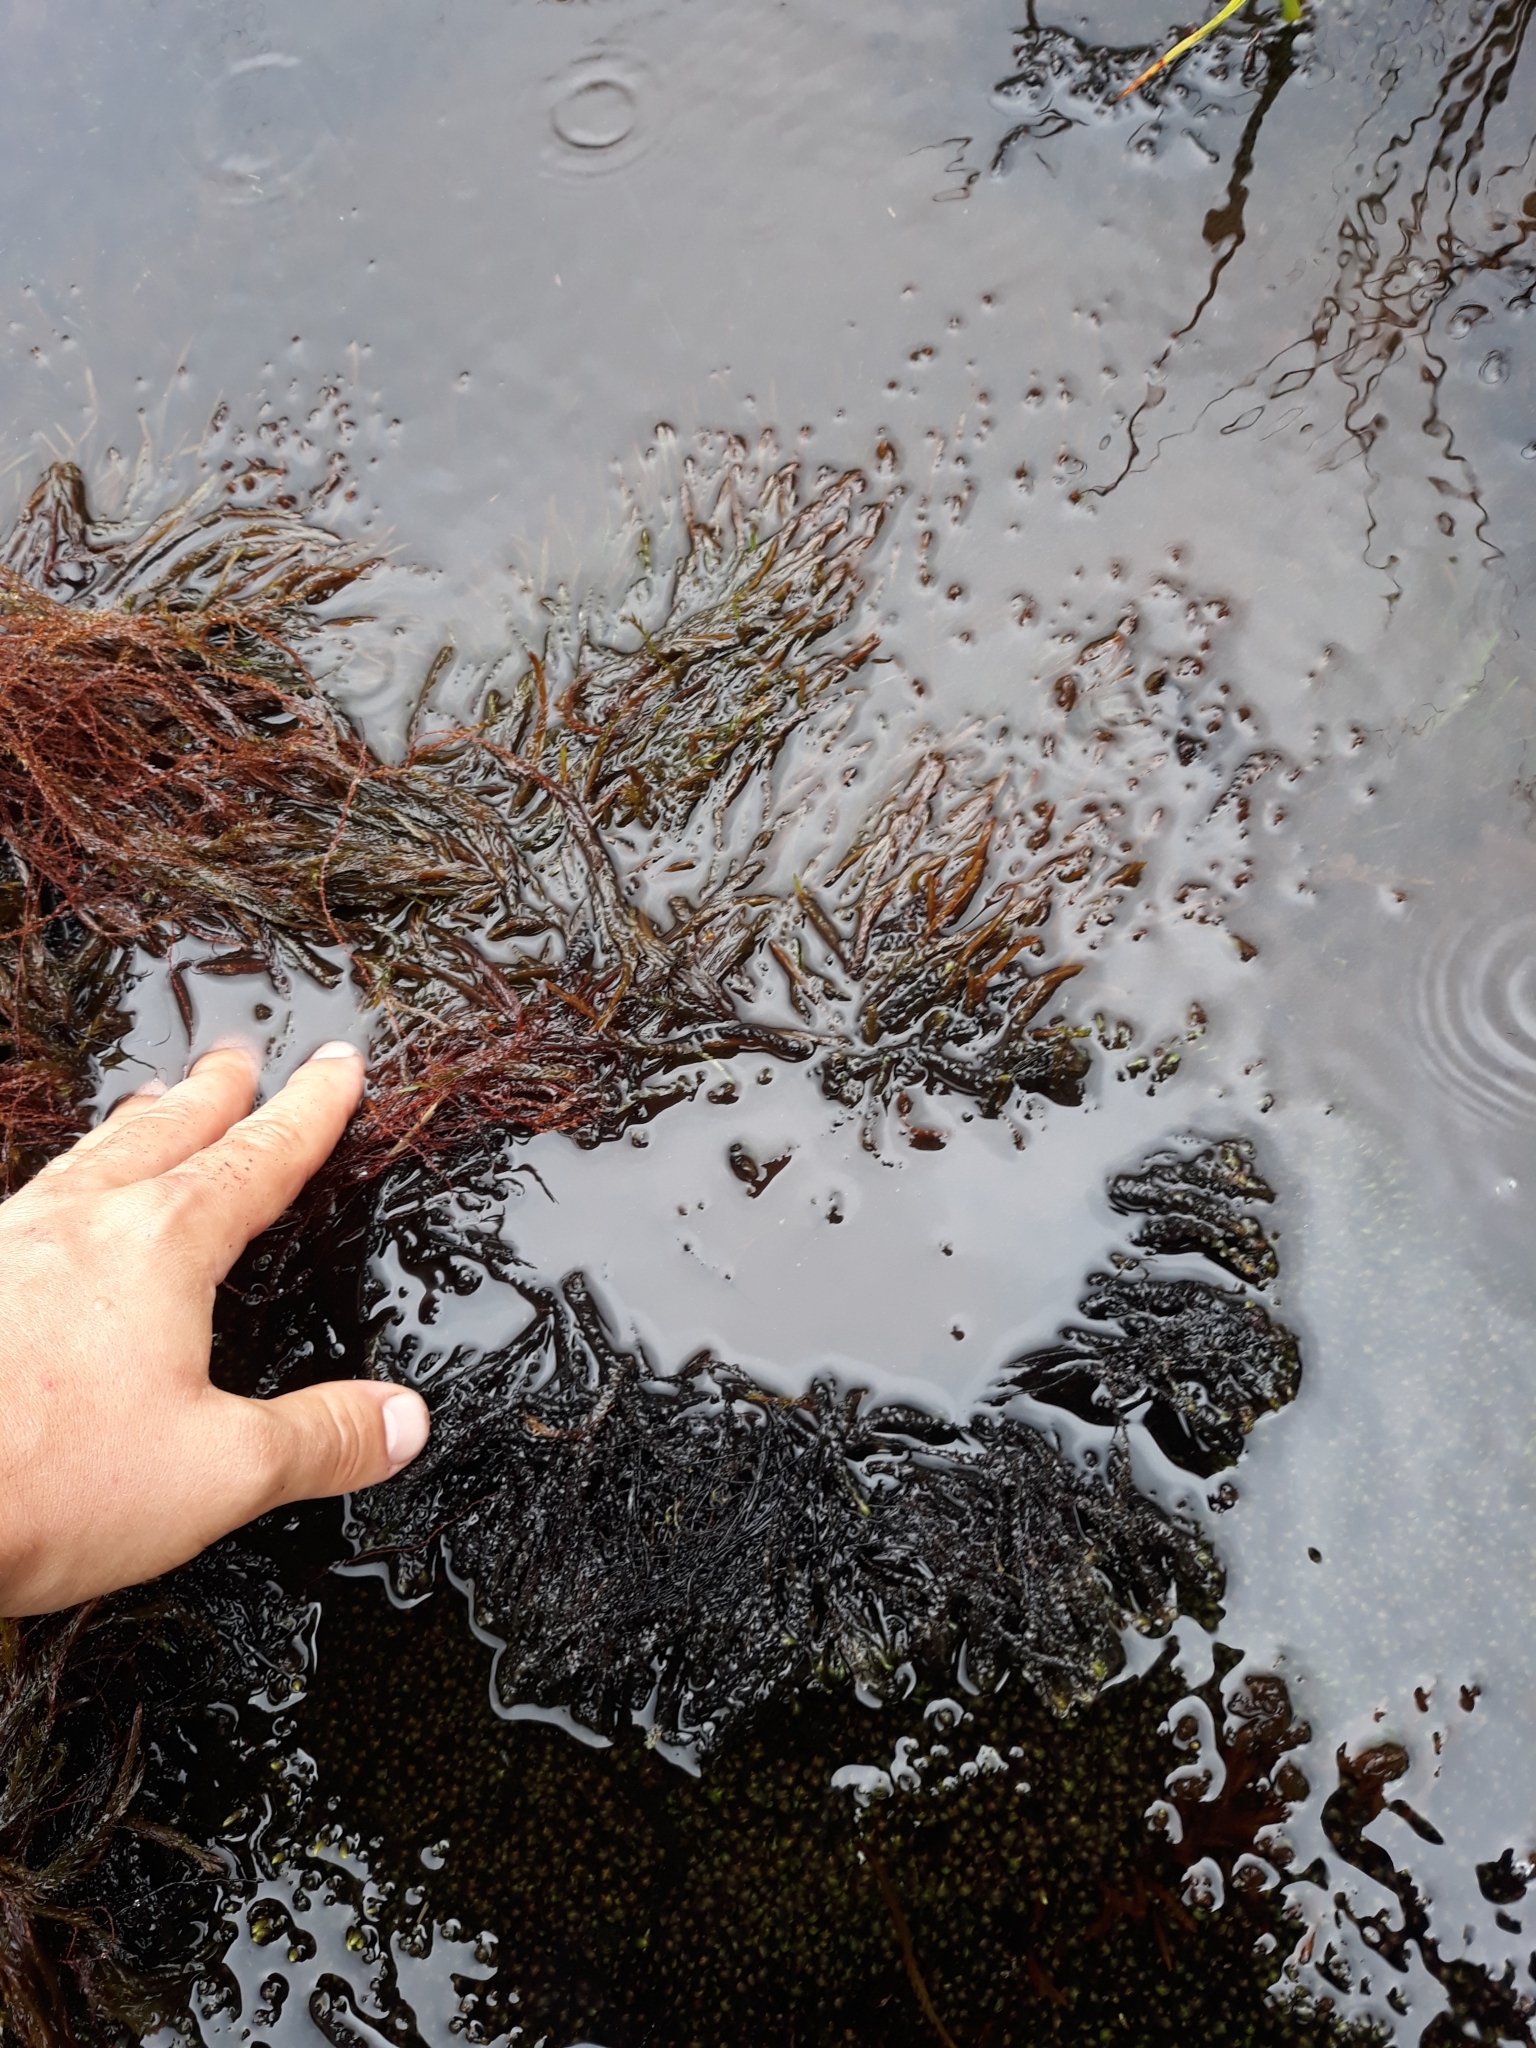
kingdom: Plantae
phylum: Bryophyta
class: Bryopsida
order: Hypnales
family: Fontinalaceae
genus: Fontinalis
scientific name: Fontinalis antipyretica
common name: Greater water-moss
